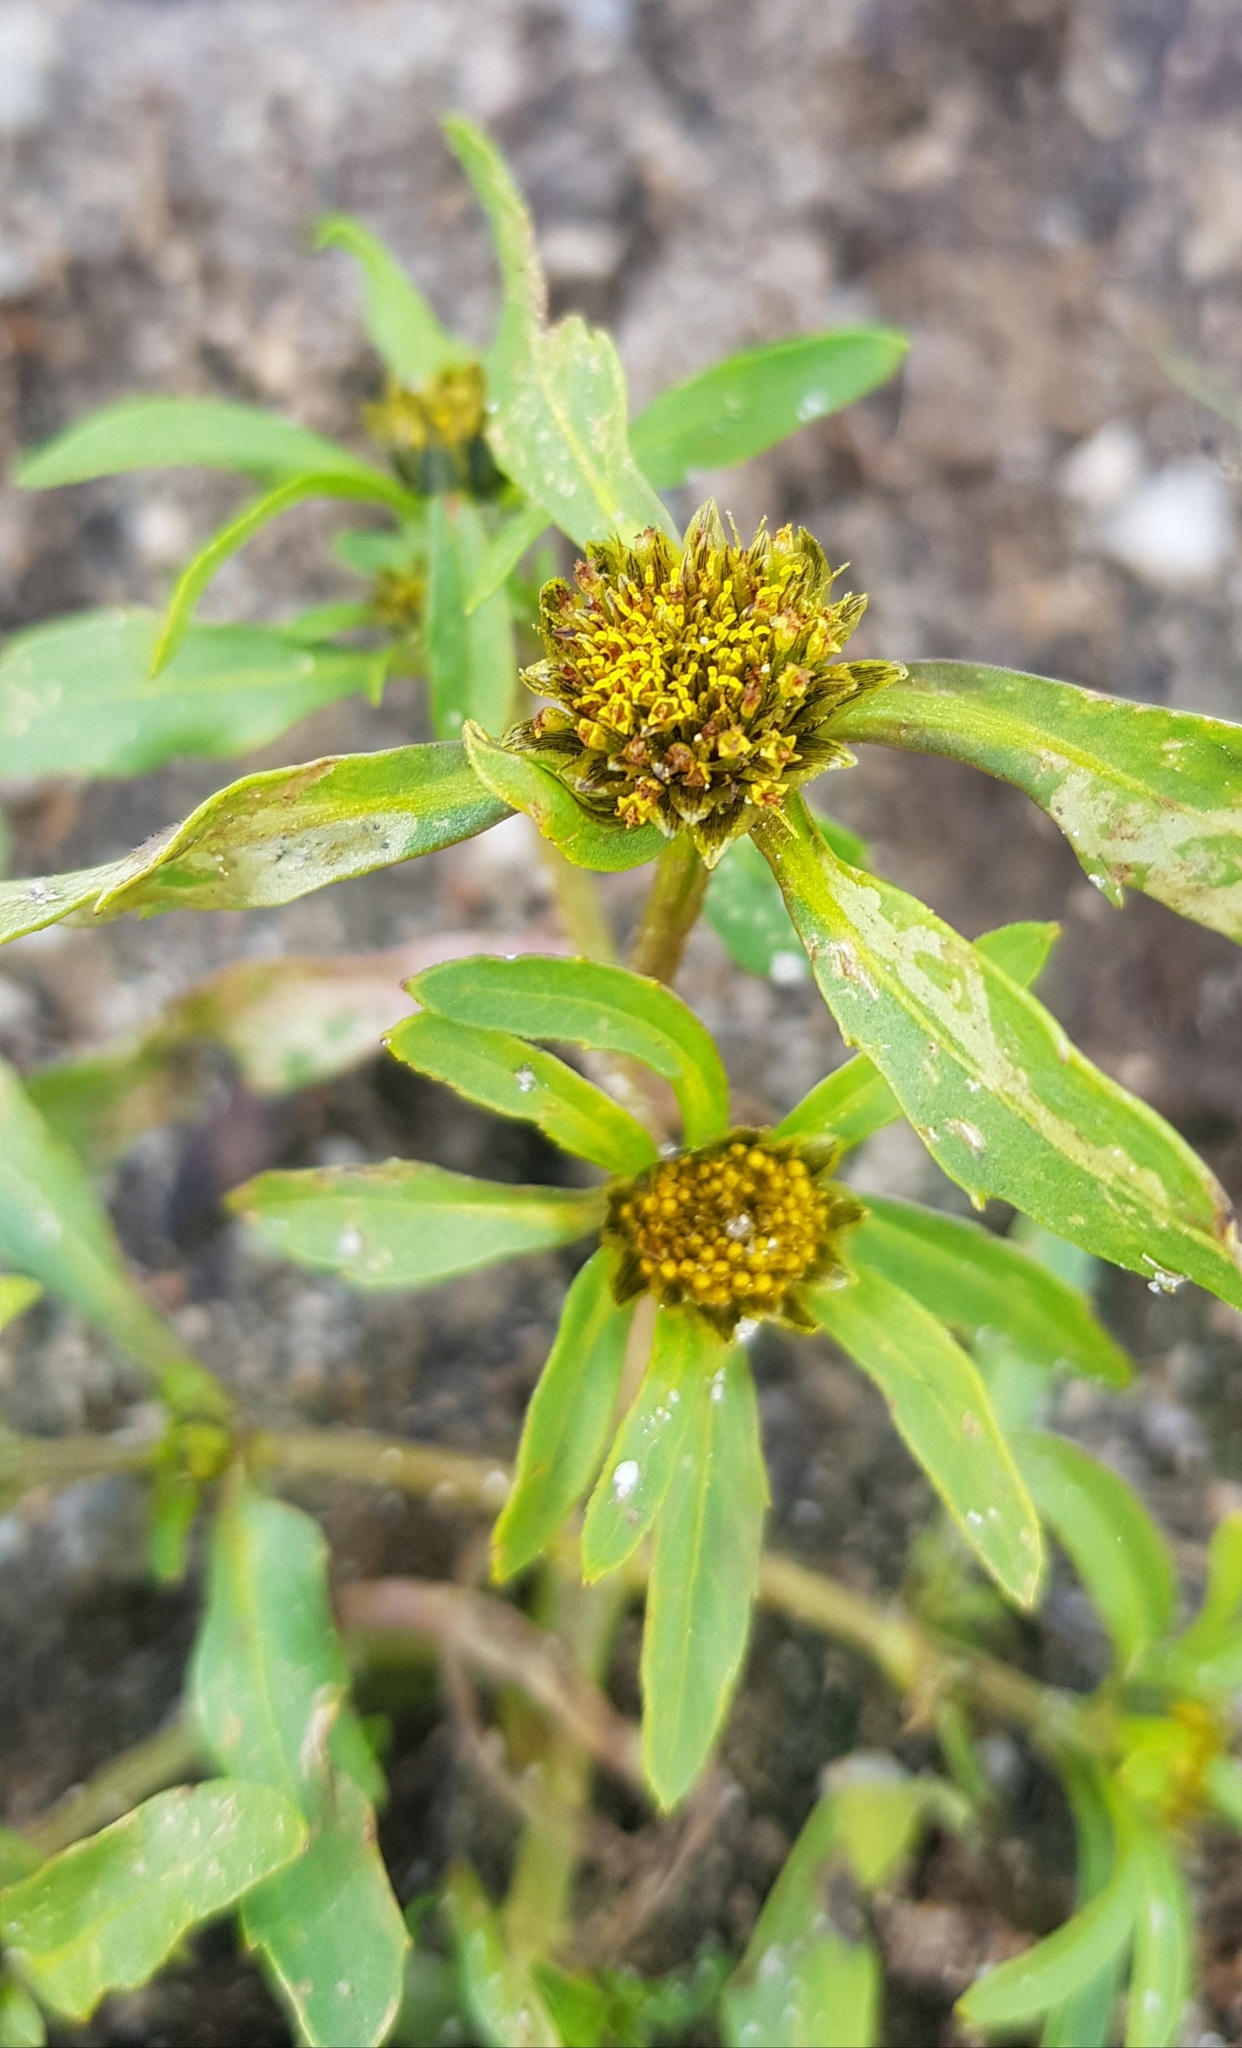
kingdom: Plantae
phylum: Tracheophyta
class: Magnoliopsida
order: Asterales
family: Asteraceae
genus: Bidens
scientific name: Bidens tripartita
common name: Trifid bur-marigold
